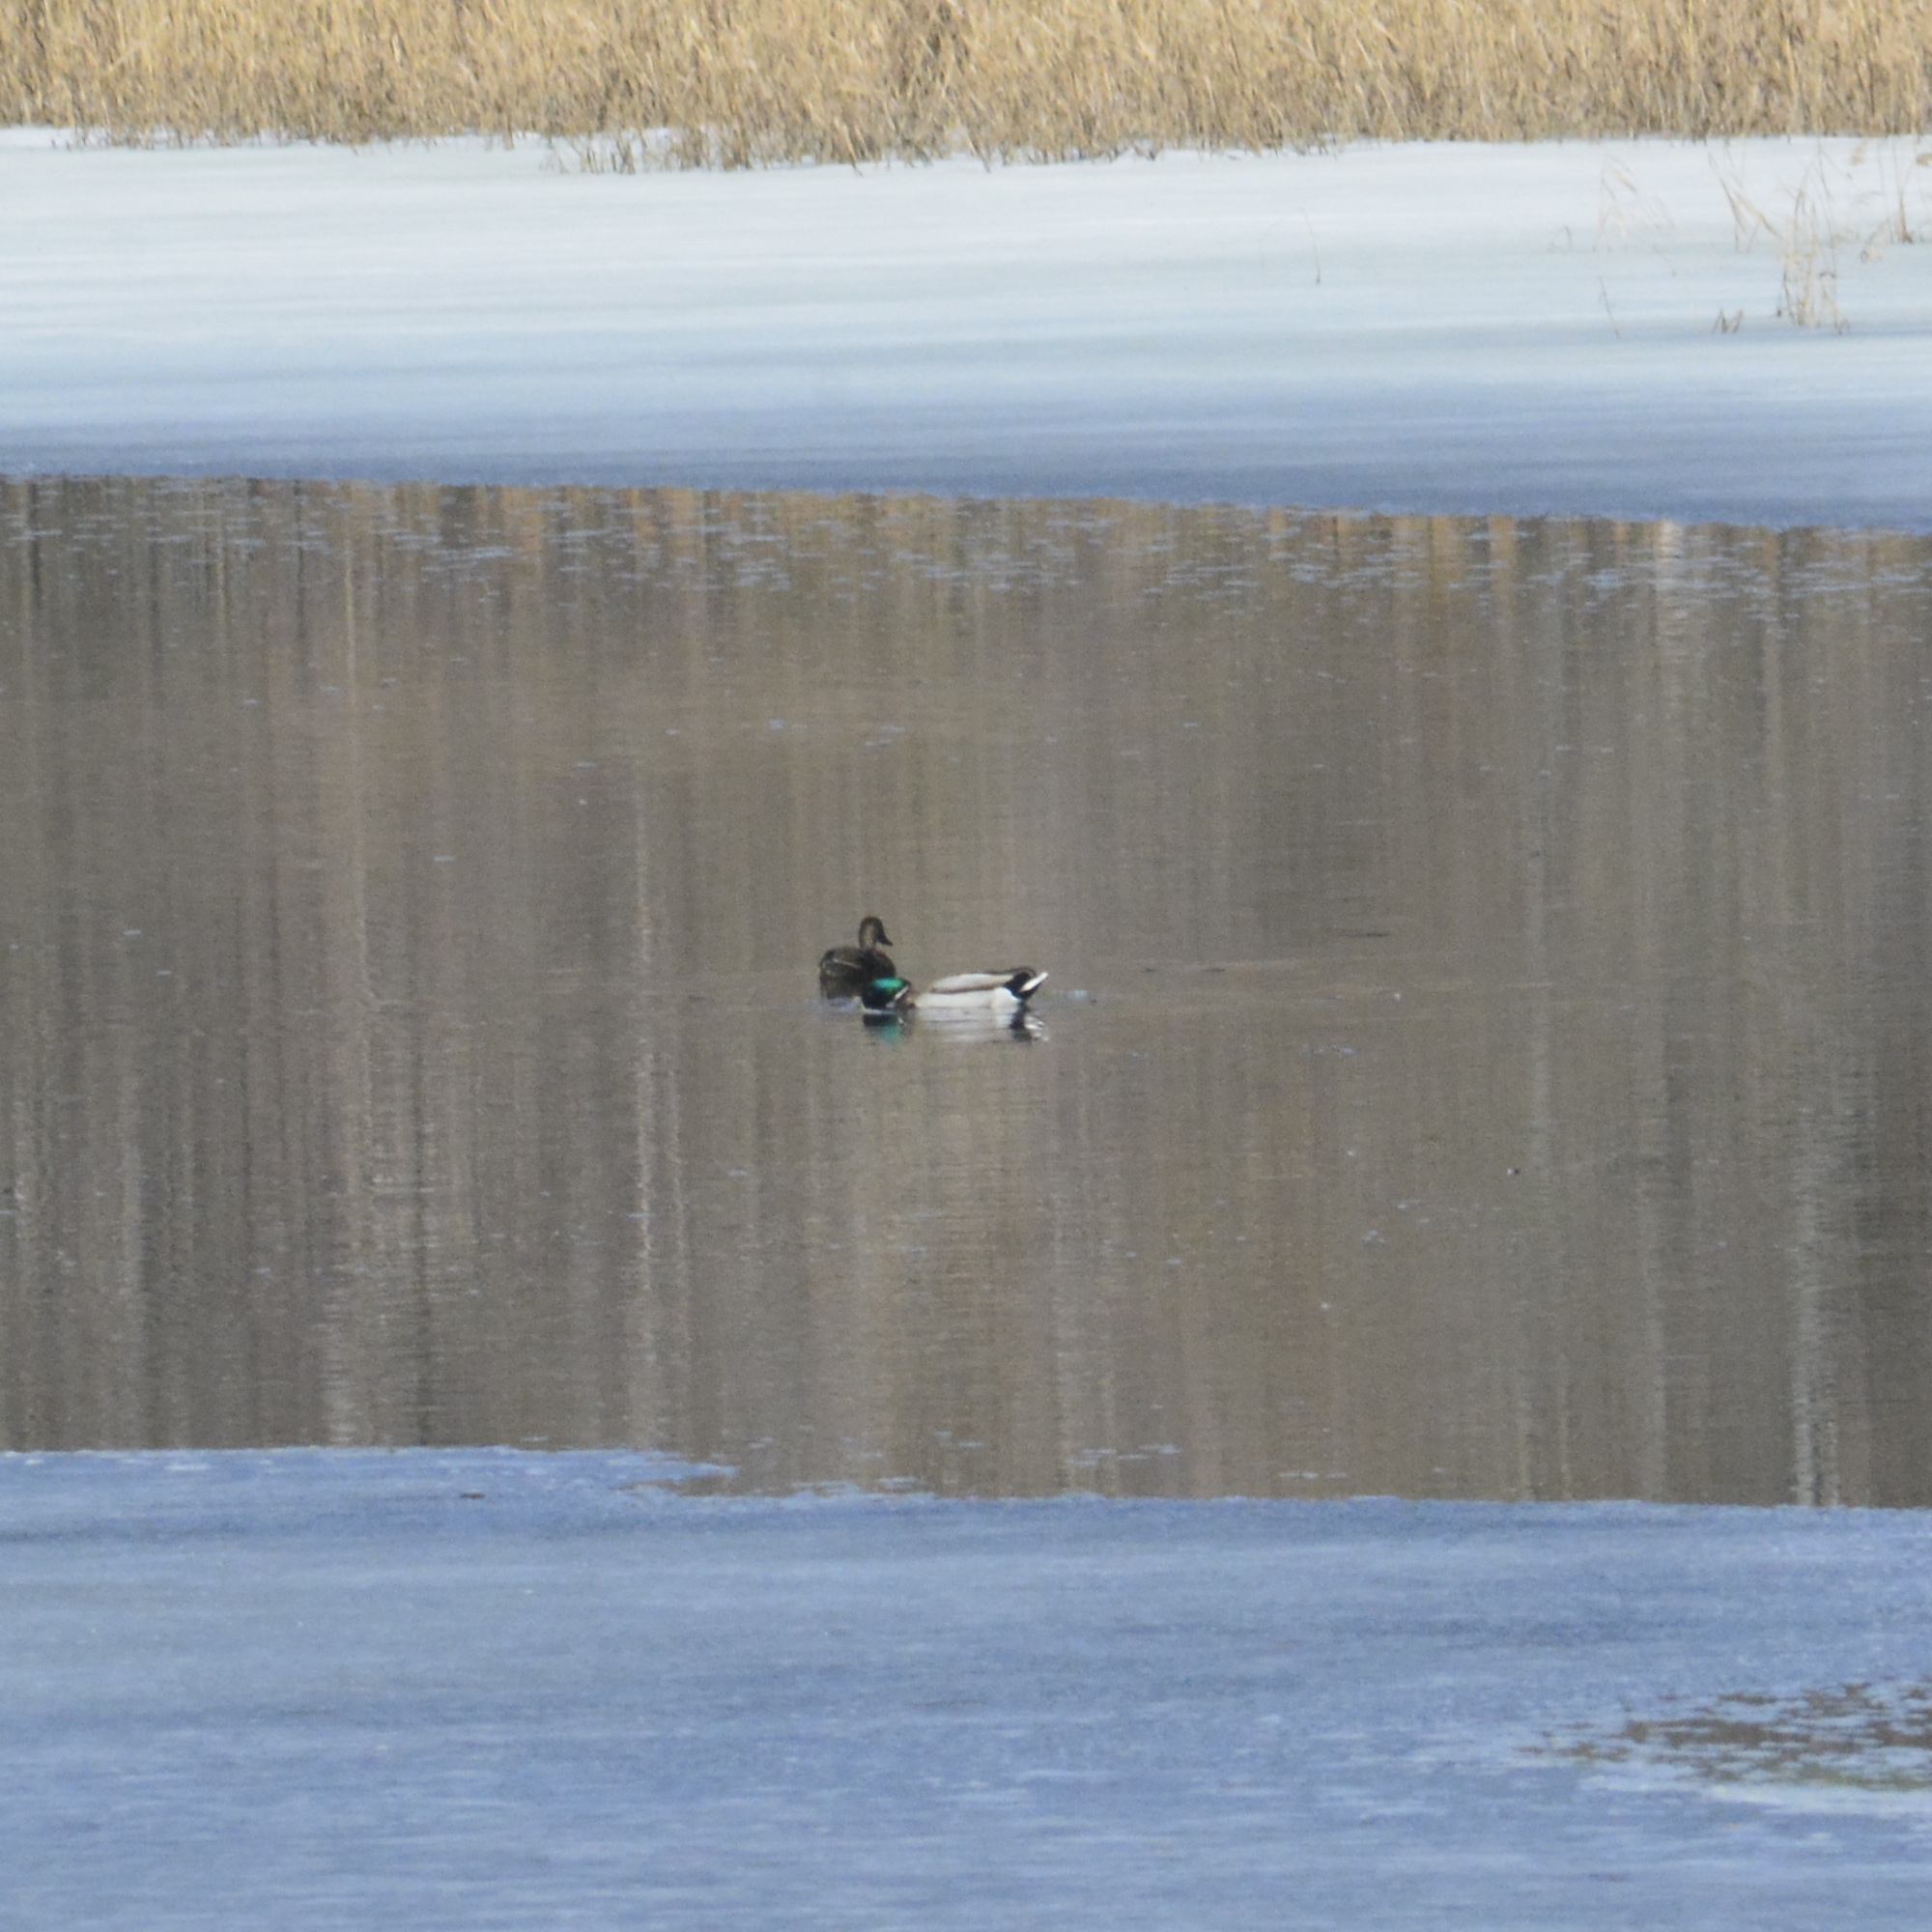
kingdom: Animalia
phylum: Chordata
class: Aves
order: Anseriformes
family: Anatidae
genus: Anas
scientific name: Anas platyrhynchos
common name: Mallard
